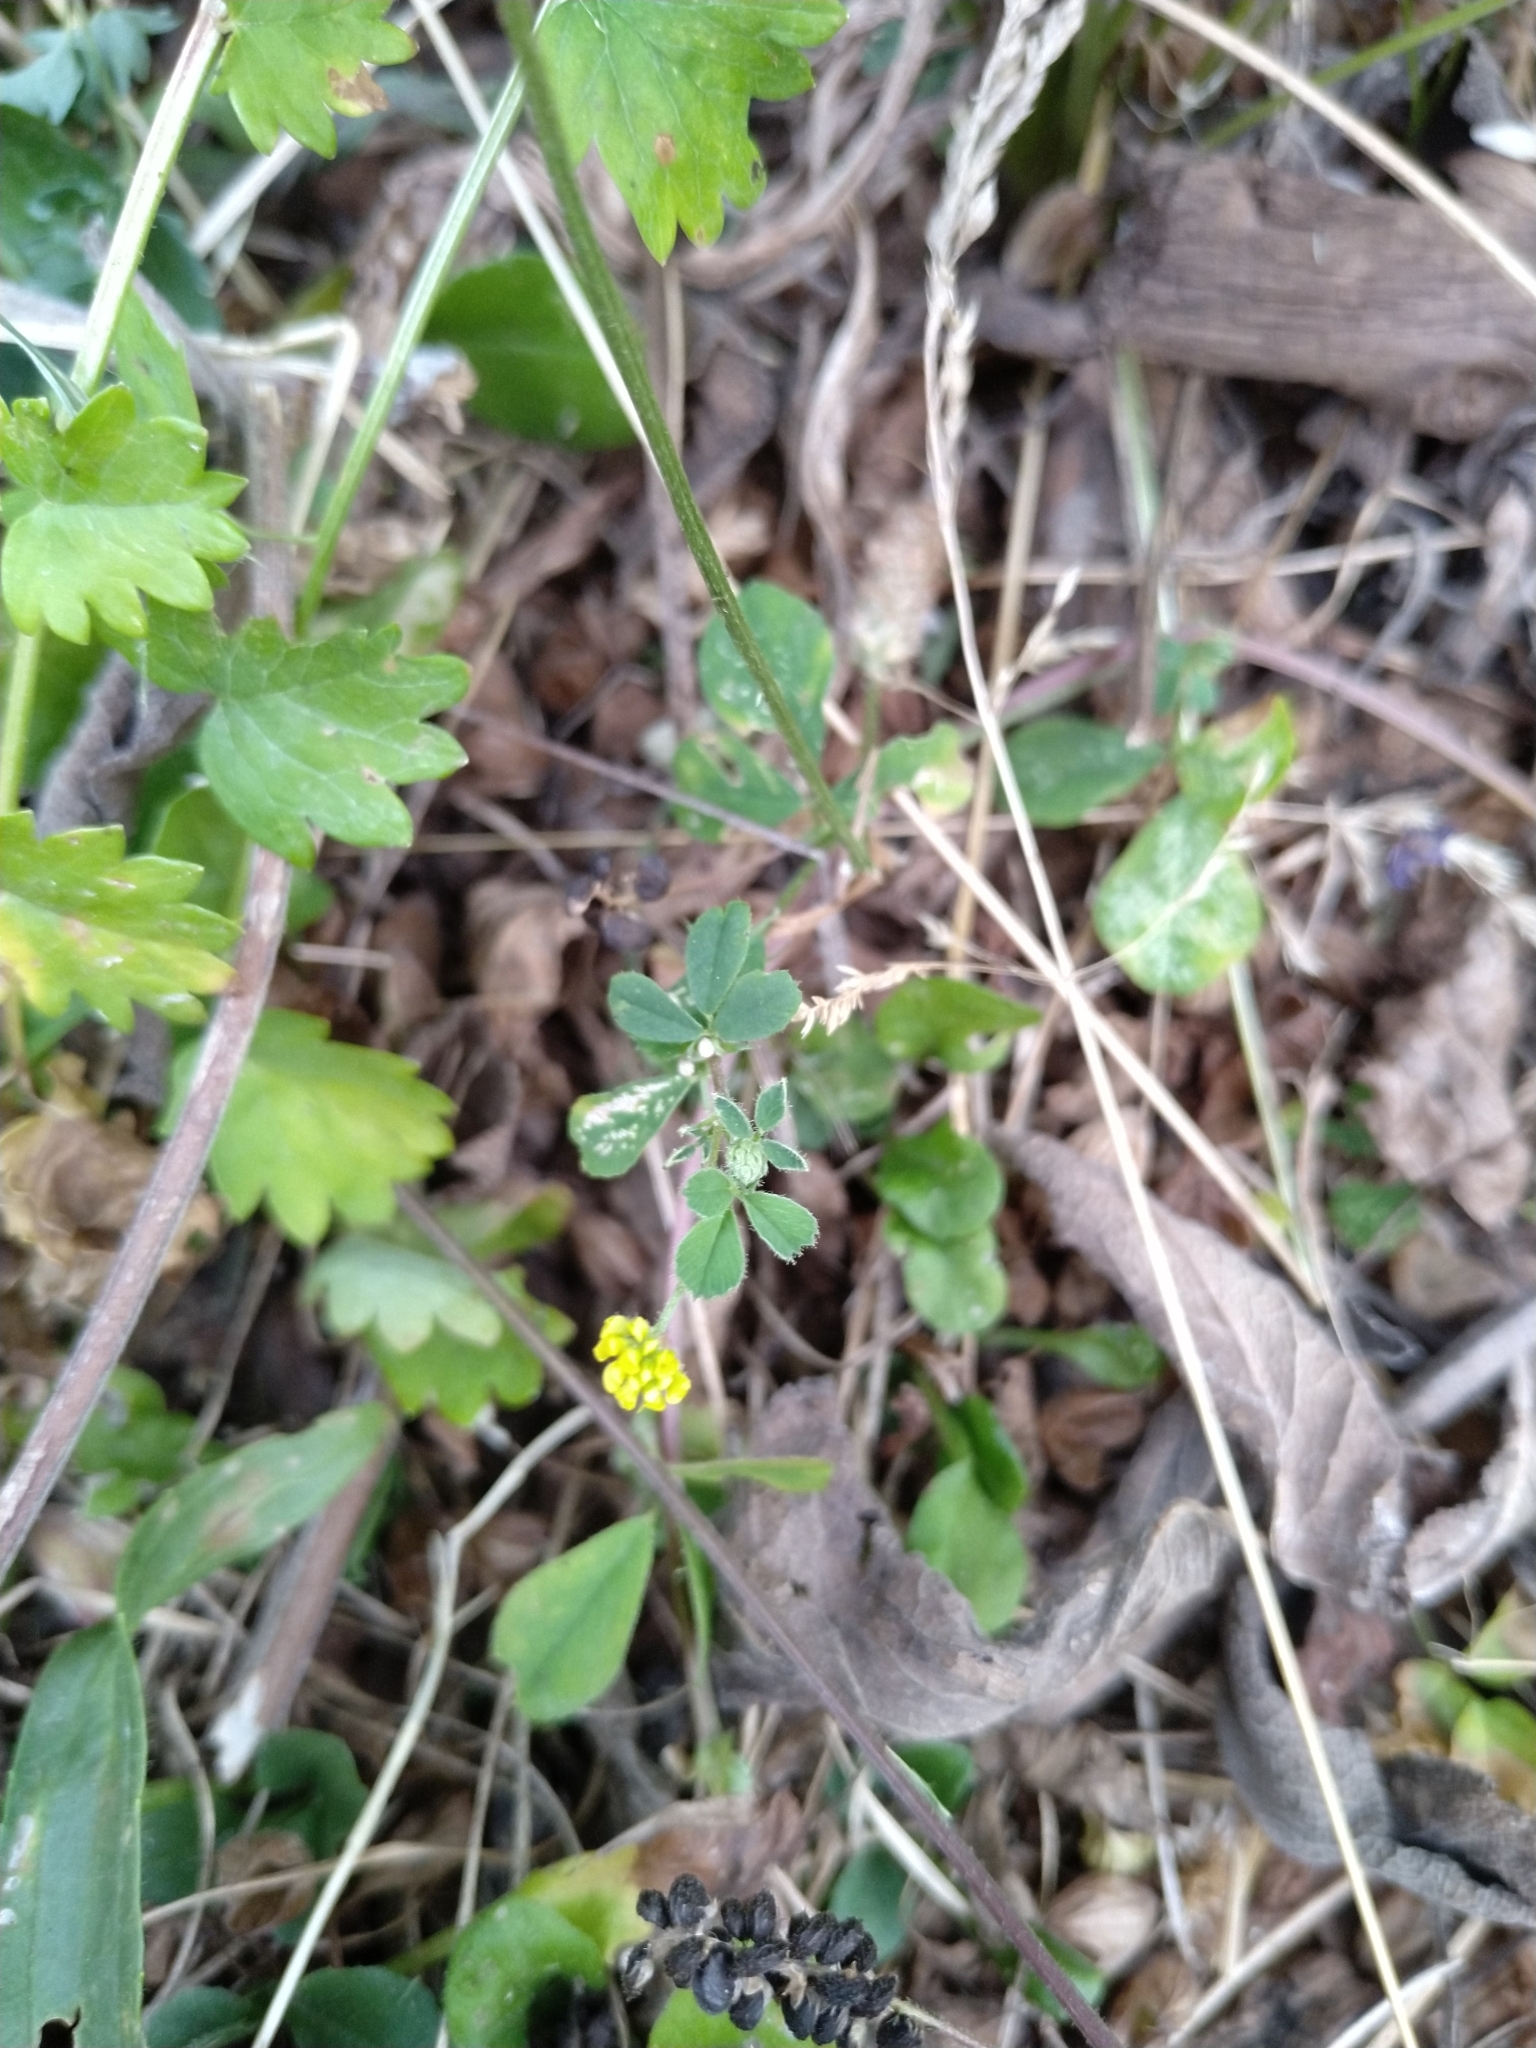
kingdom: Plantae
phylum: Tracheophyta
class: Magnoliopsida
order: Fabales
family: Fabaceae
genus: Medicago
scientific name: Medicago lupulina
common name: Black medick
